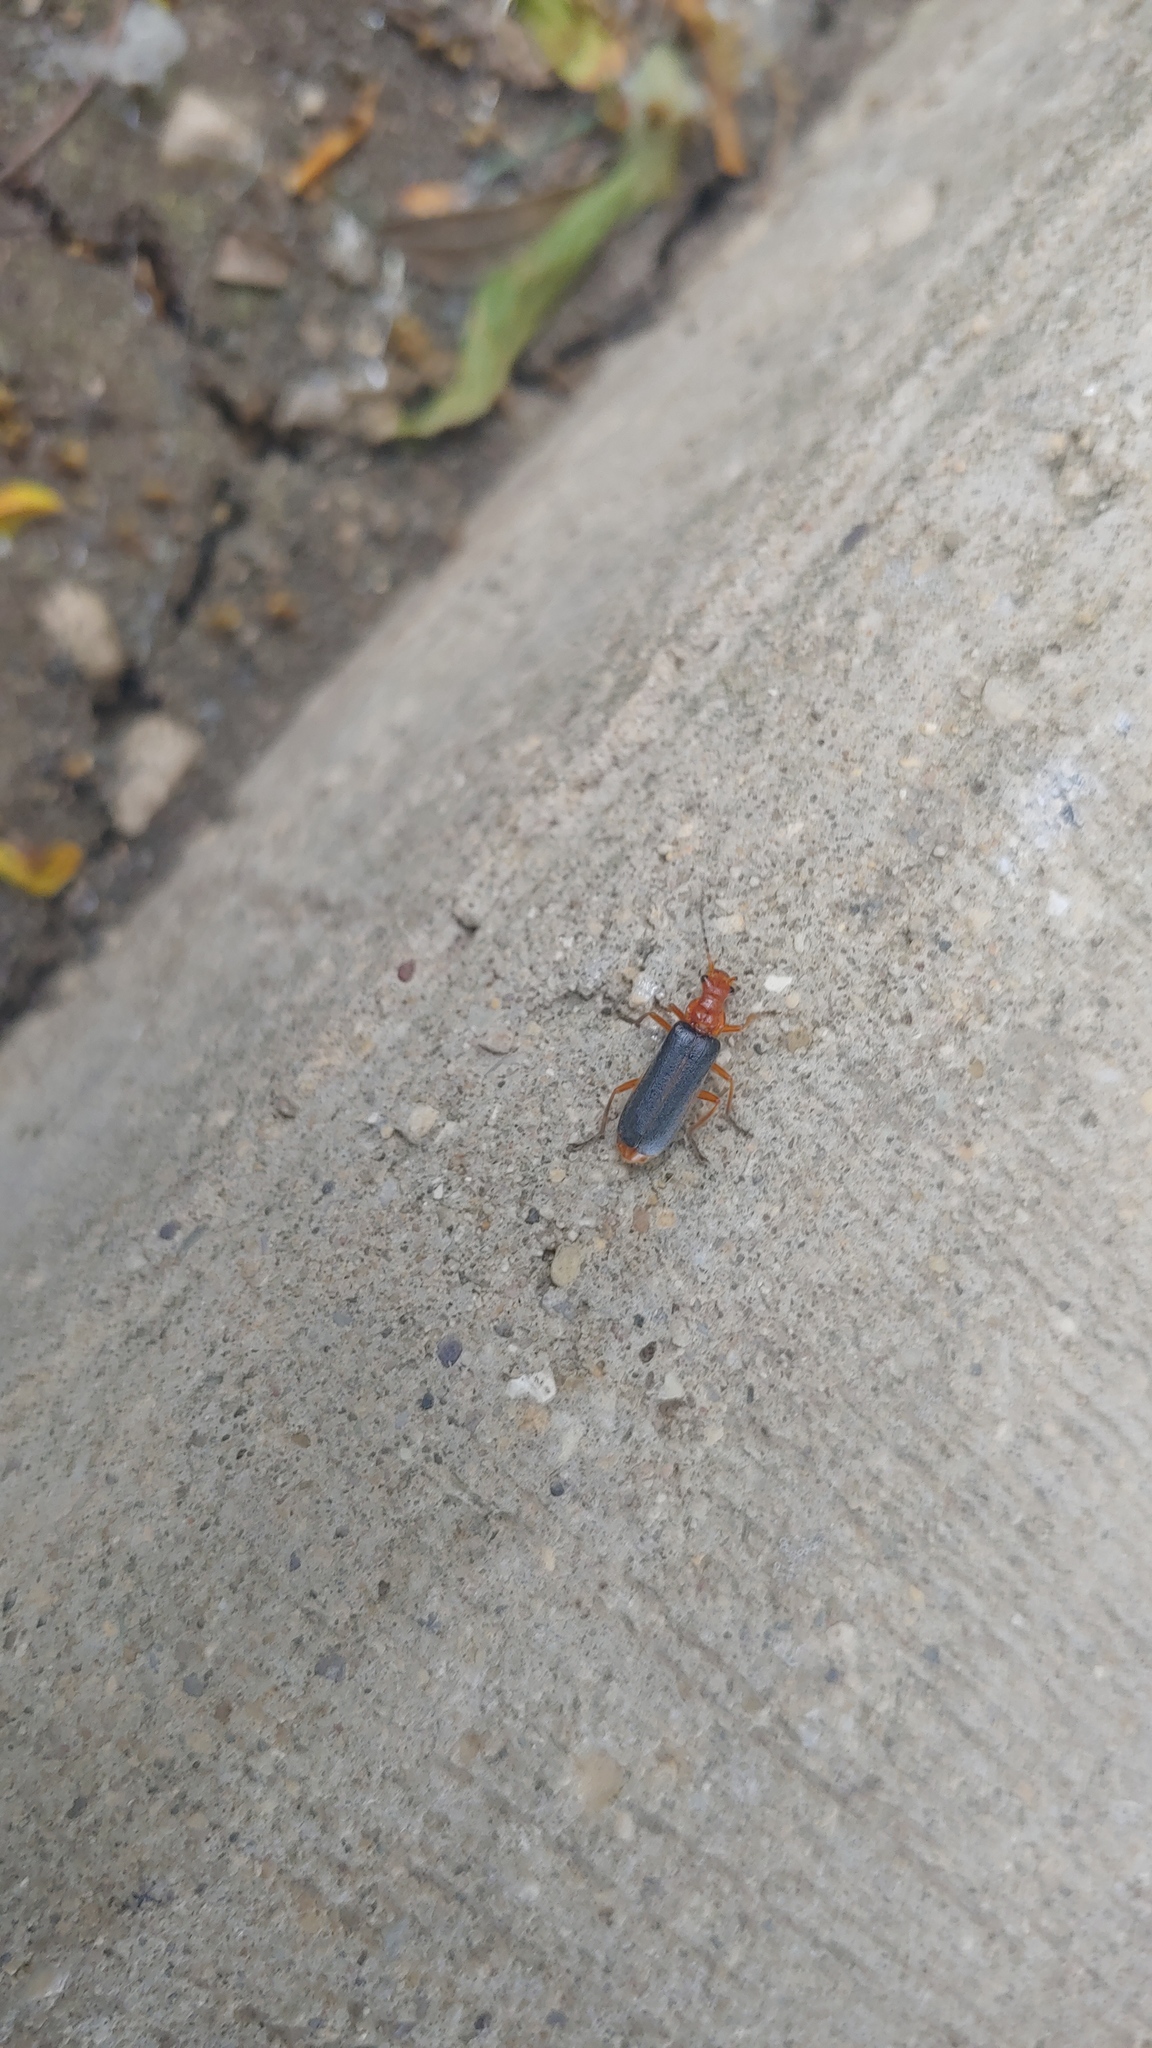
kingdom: Animalia
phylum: Arthropoda
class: Insecta
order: Coleoptera
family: Cantharidae
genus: Podabrus
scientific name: Podabrus tomentosus
